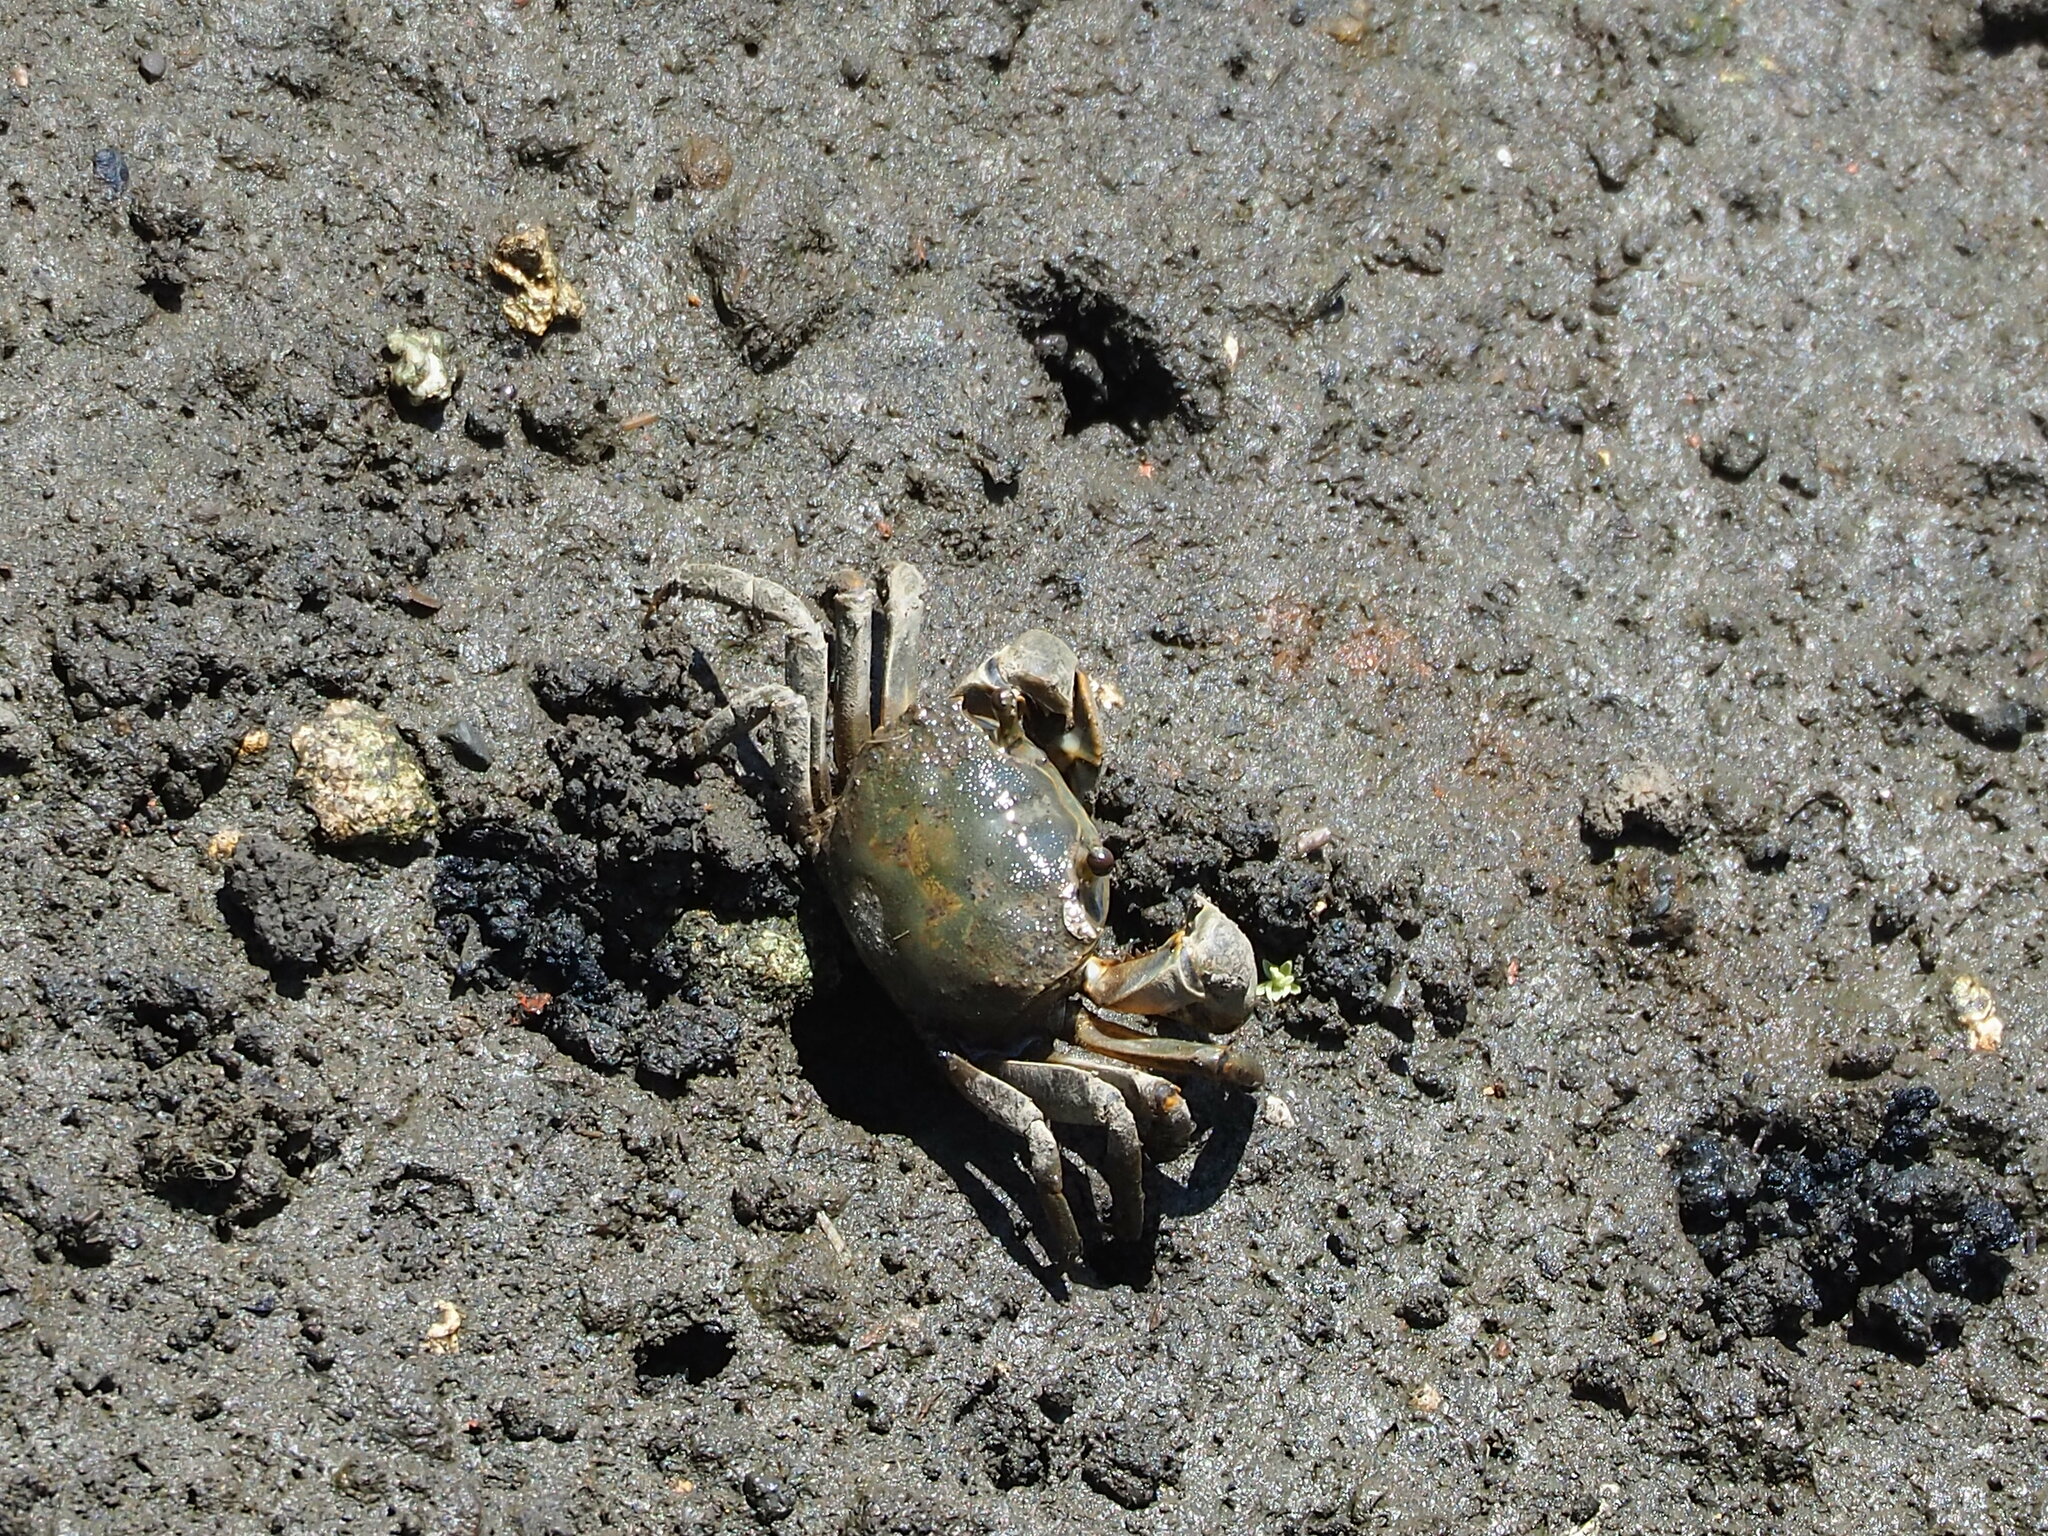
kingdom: Animalia
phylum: Arthropoda
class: Malacostraca
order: Decapoda
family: Varunidae
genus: Helice
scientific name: Helice formosensis
